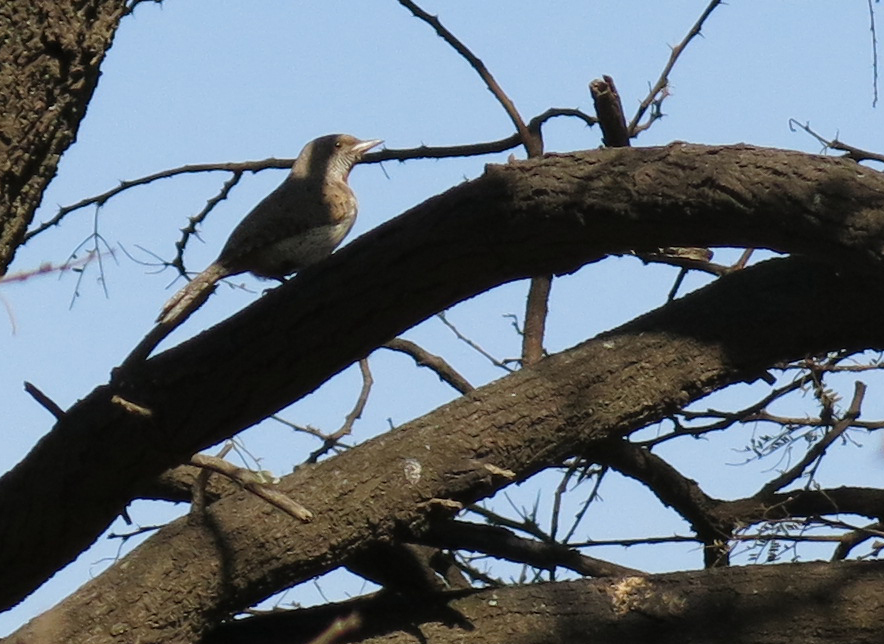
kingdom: Animalia
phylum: Chordata
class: Aves
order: Piciformes
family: Picidae
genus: Jynx
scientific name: Jynx ruficollis
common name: Red-throated wryneck
